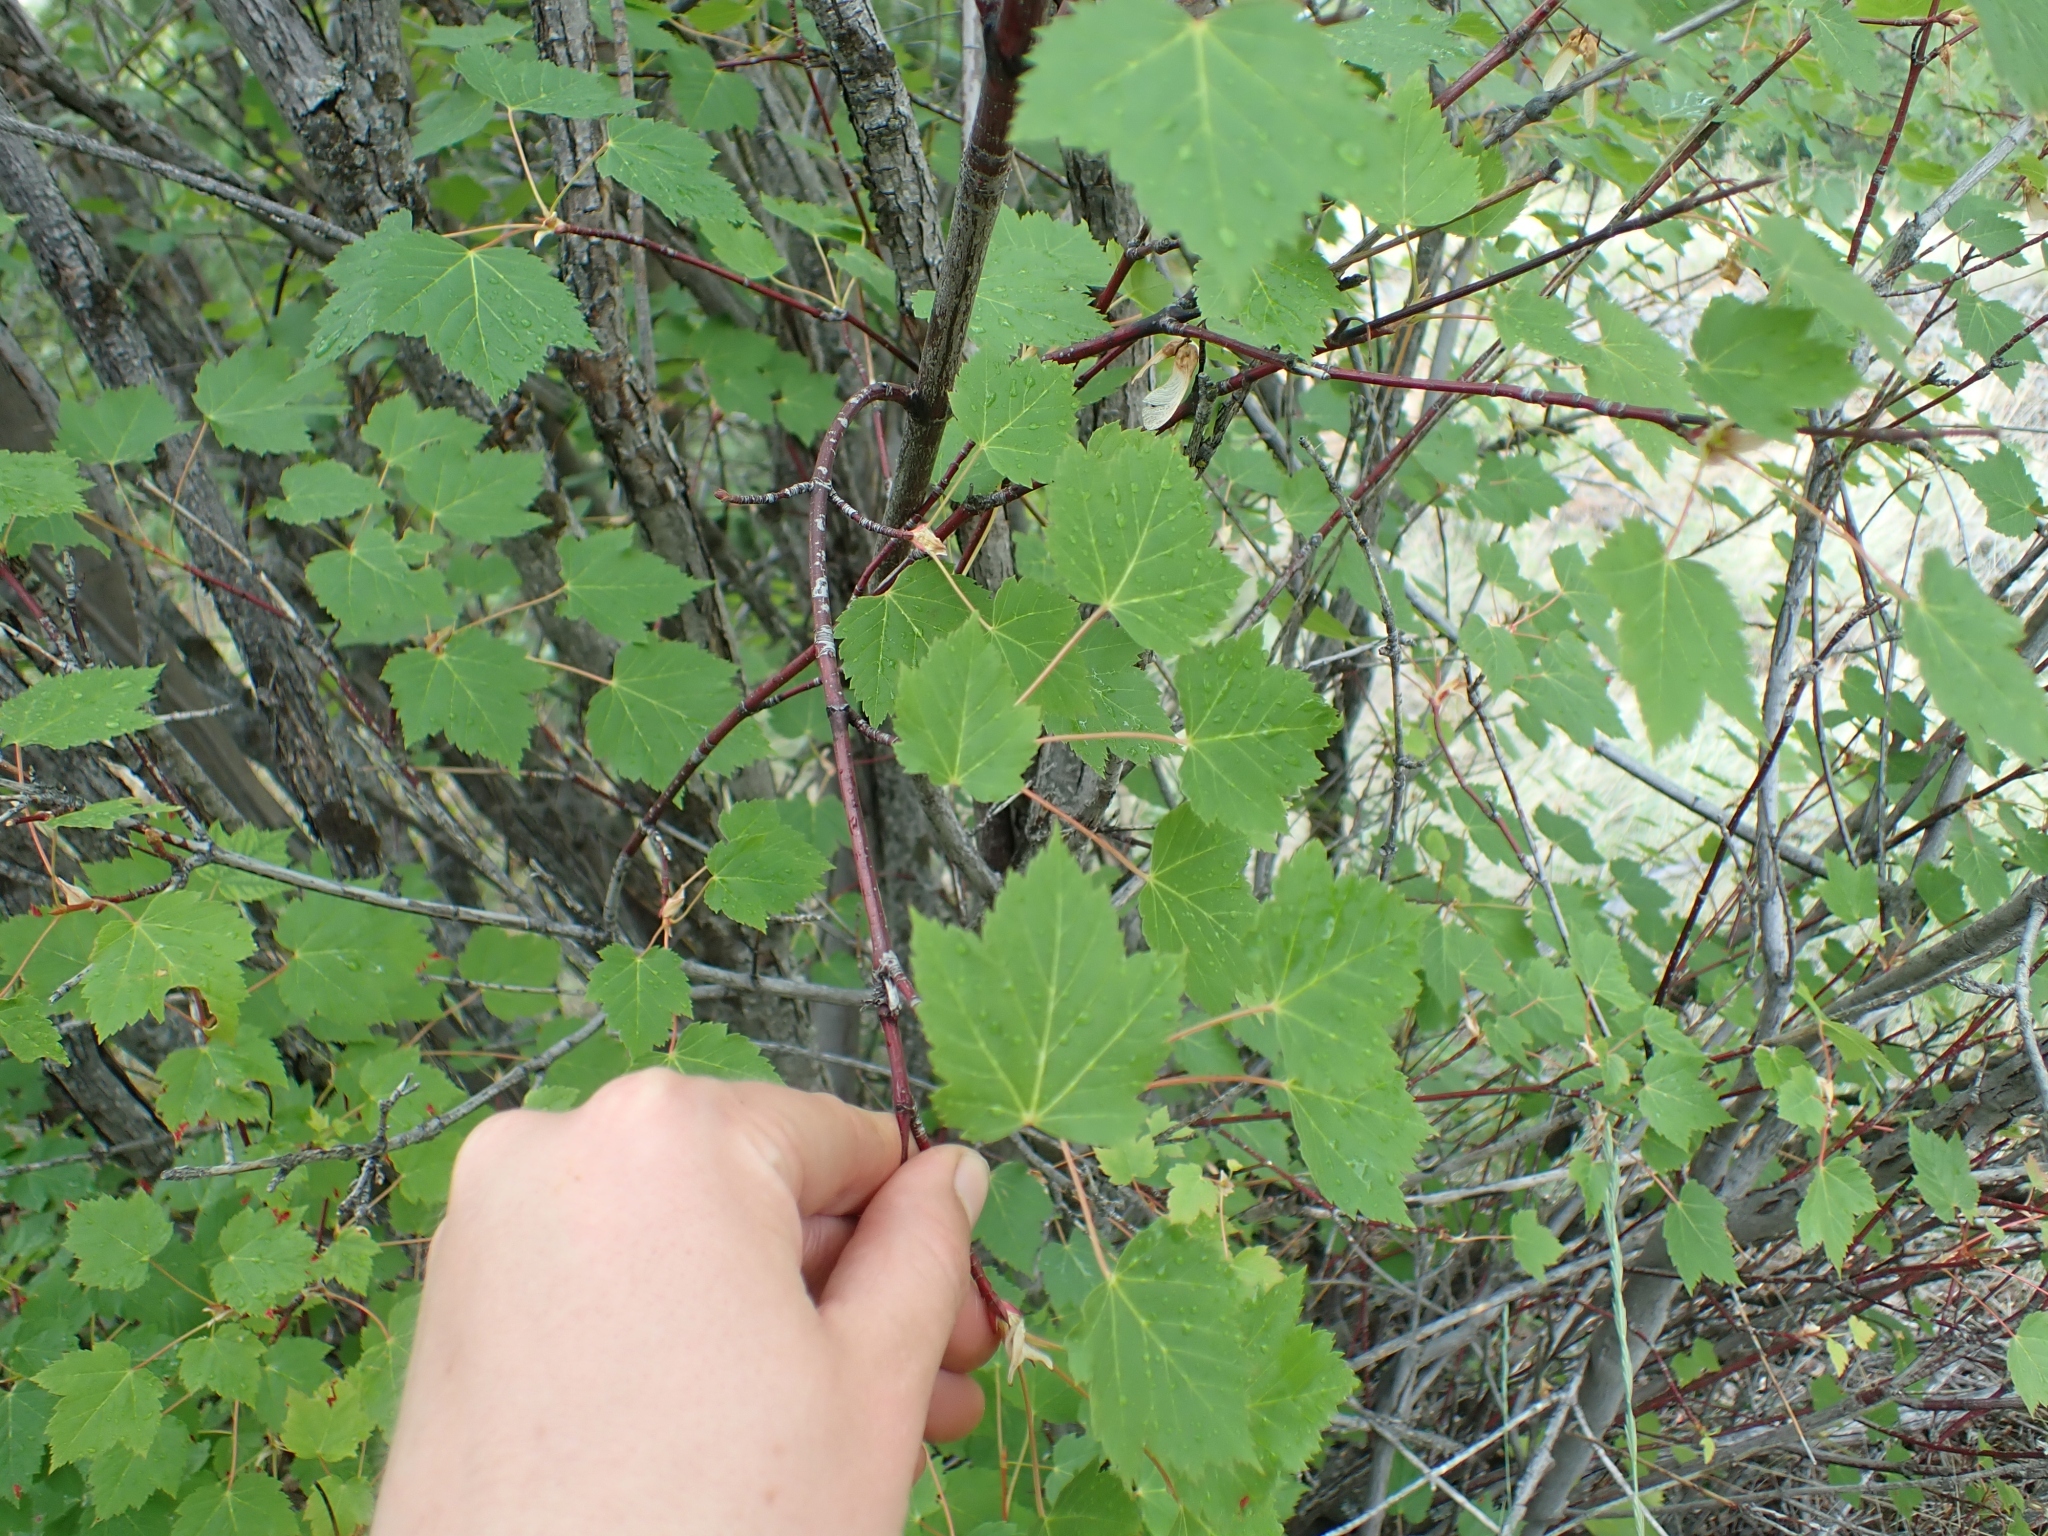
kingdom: Plantae
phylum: Tracheophyta
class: Magnoliopsida
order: Sapindales
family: Sapindaceae
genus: Acer
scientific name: Acer glabrum
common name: Rocky mountain maple
